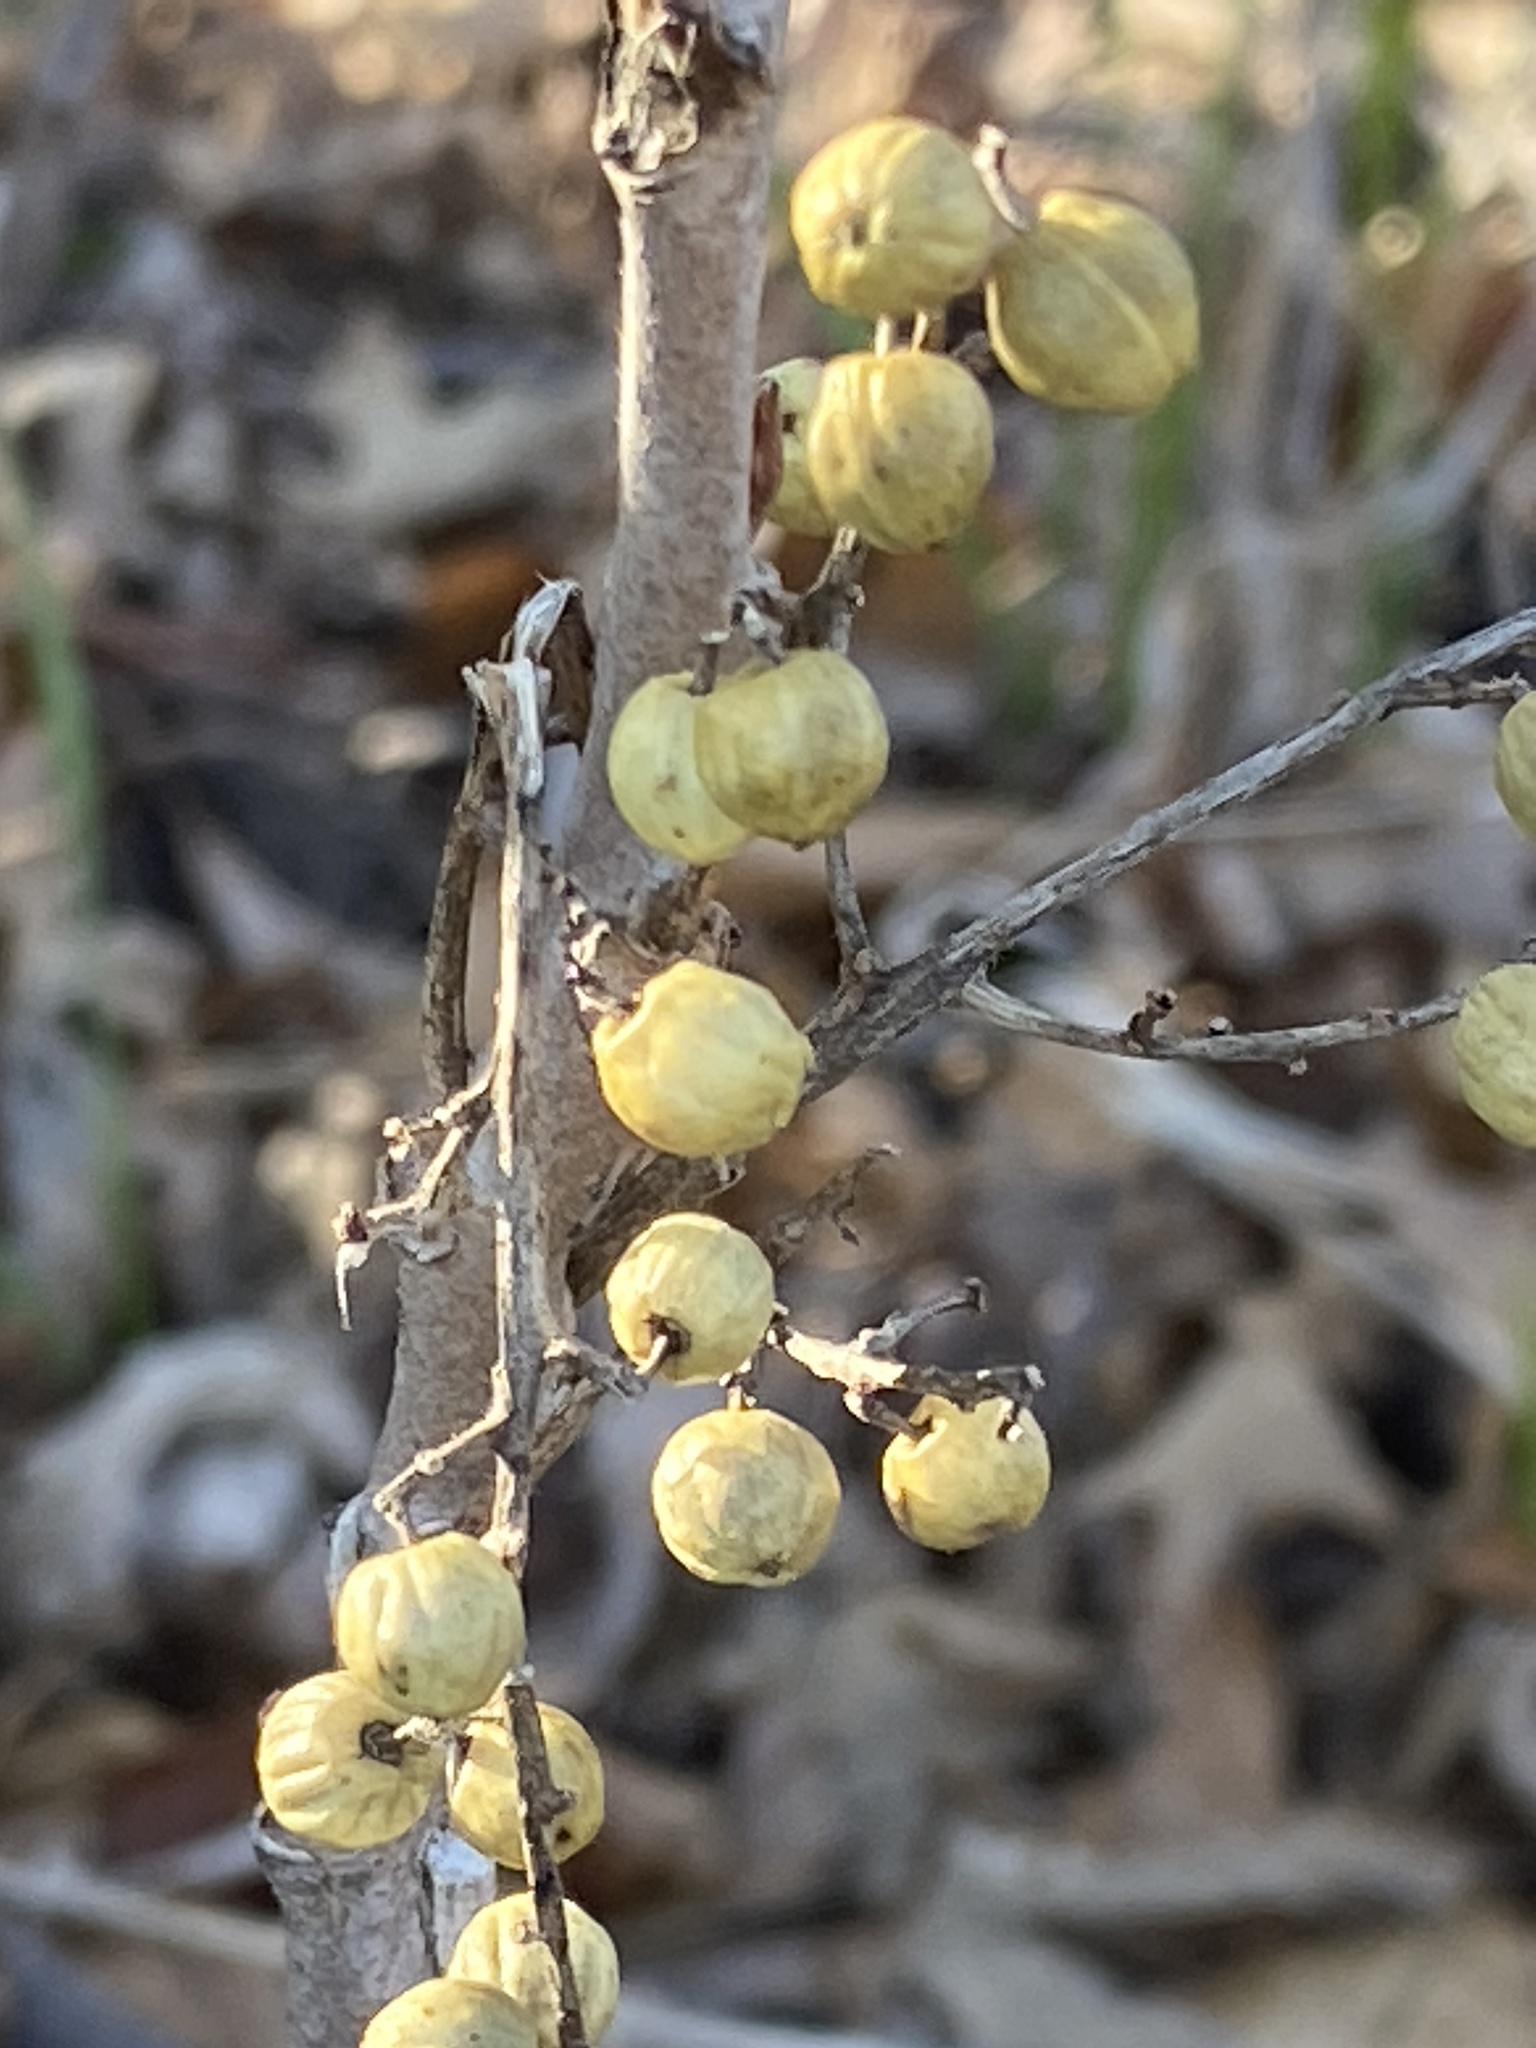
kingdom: Plantae
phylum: Tracheophyta
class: Magnoliopsida
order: Sapindales
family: Anacardiaceae
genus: Toxicodendron
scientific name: Toxicodendron rydbergii
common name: Rydberg's poison-ivy
